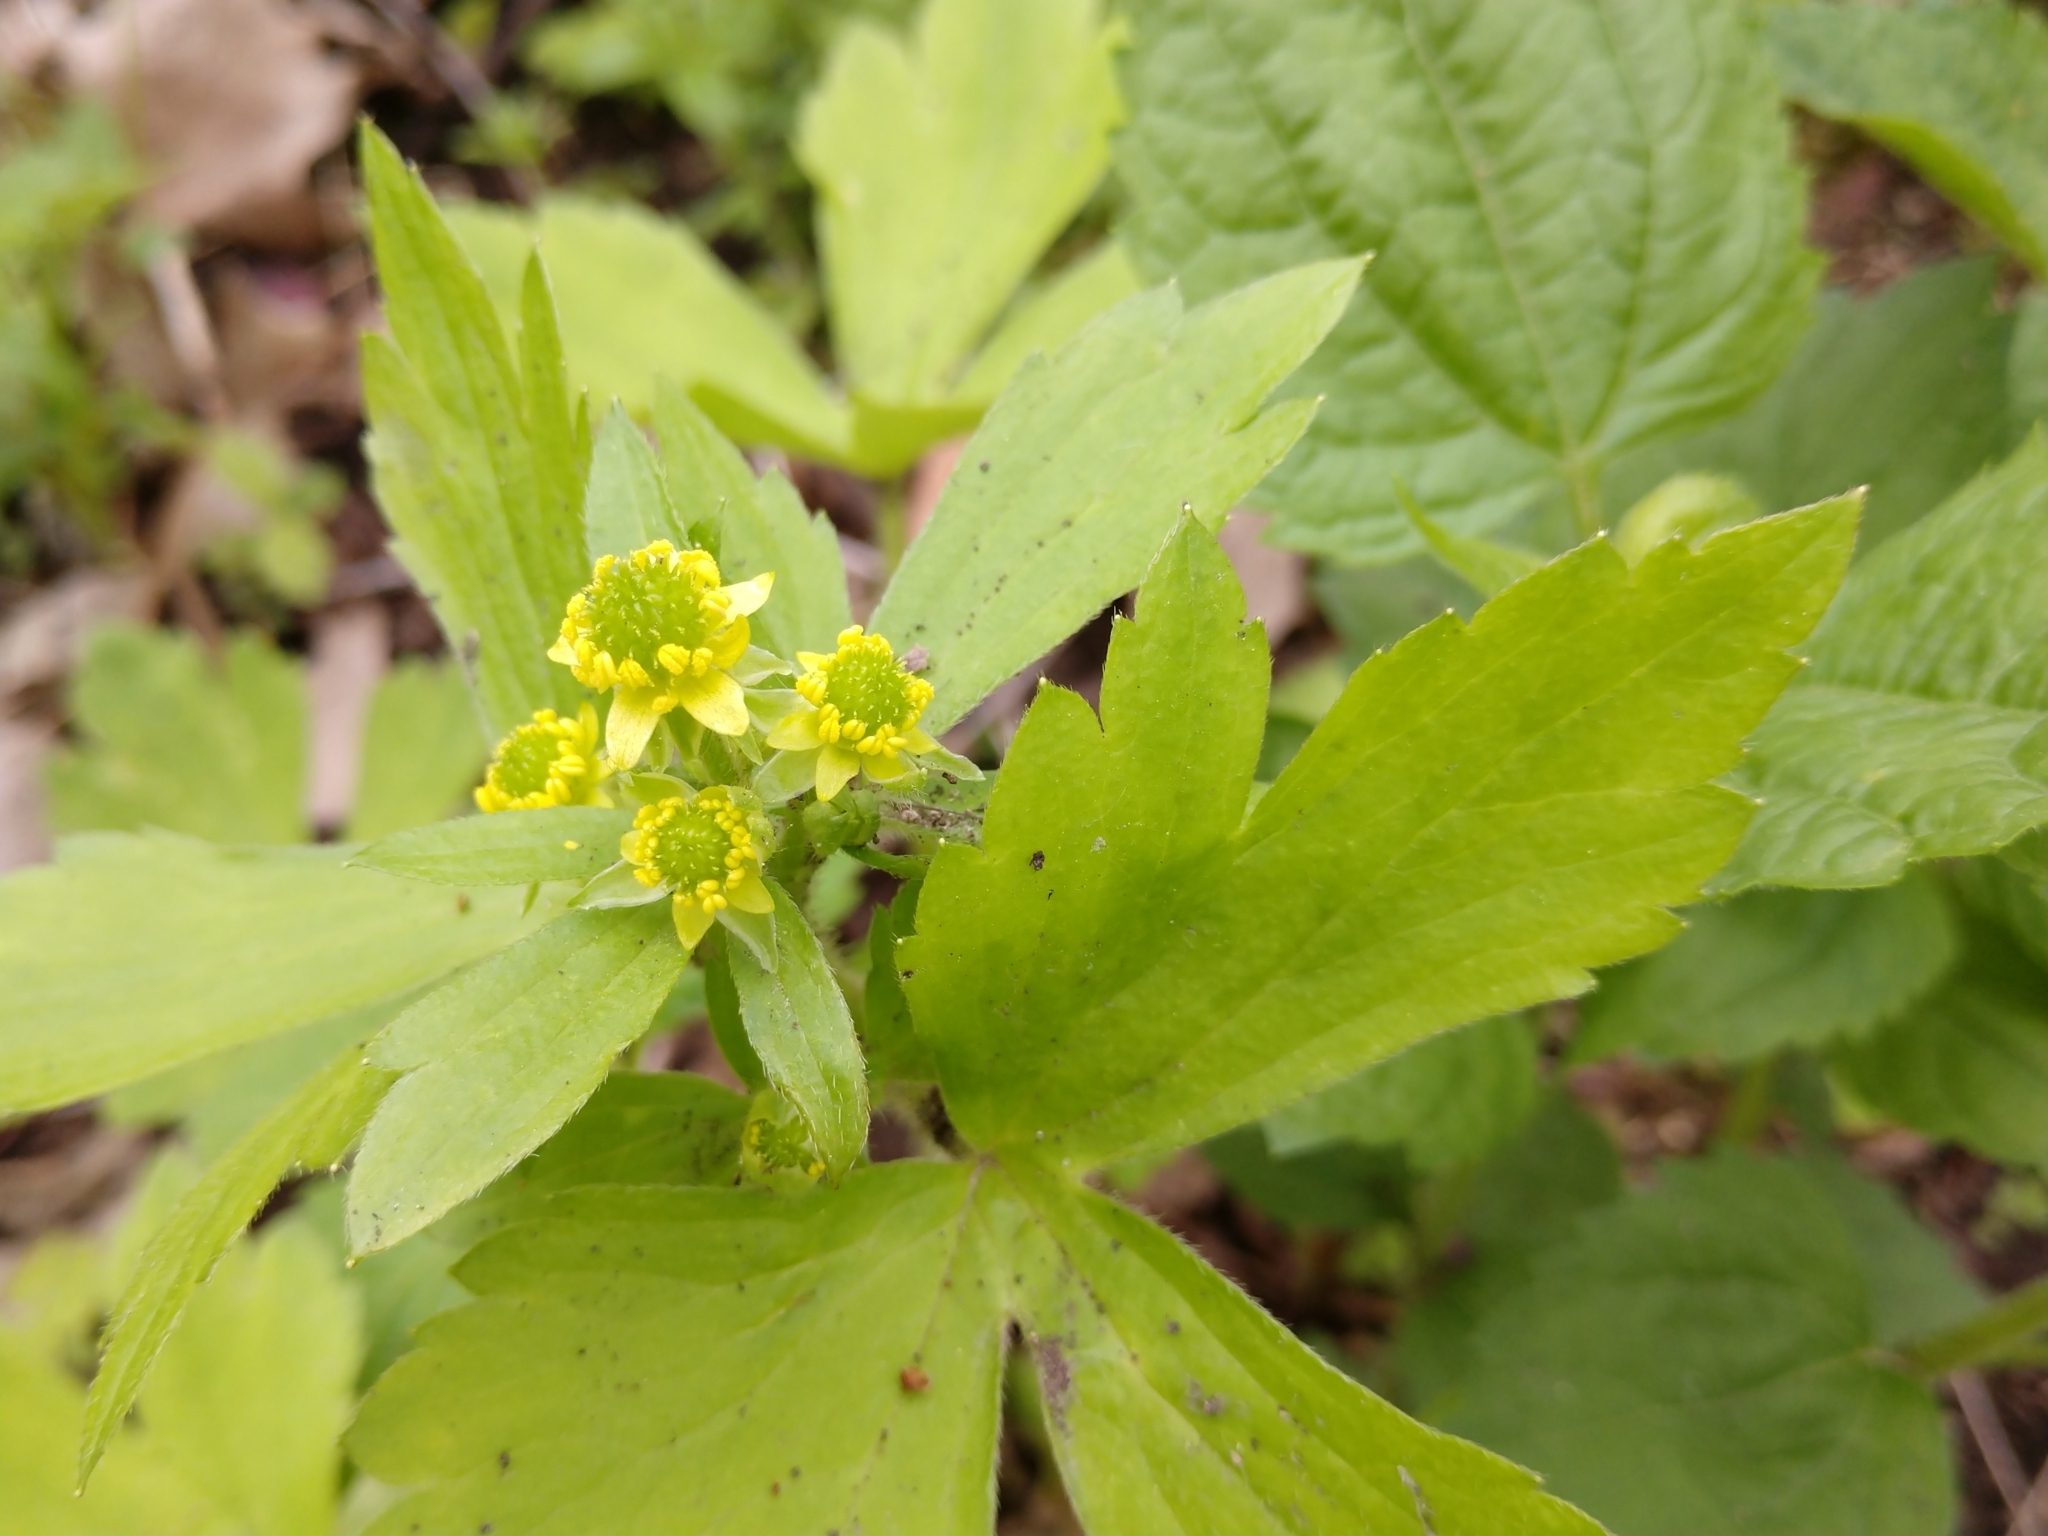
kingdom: Plantae
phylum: Tracheophyta
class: Magnoliopsida
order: Ranunculales
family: Ranunculaceae
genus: Ranunculus
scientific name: Ranunculus recurvatus
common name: Blisterwort
